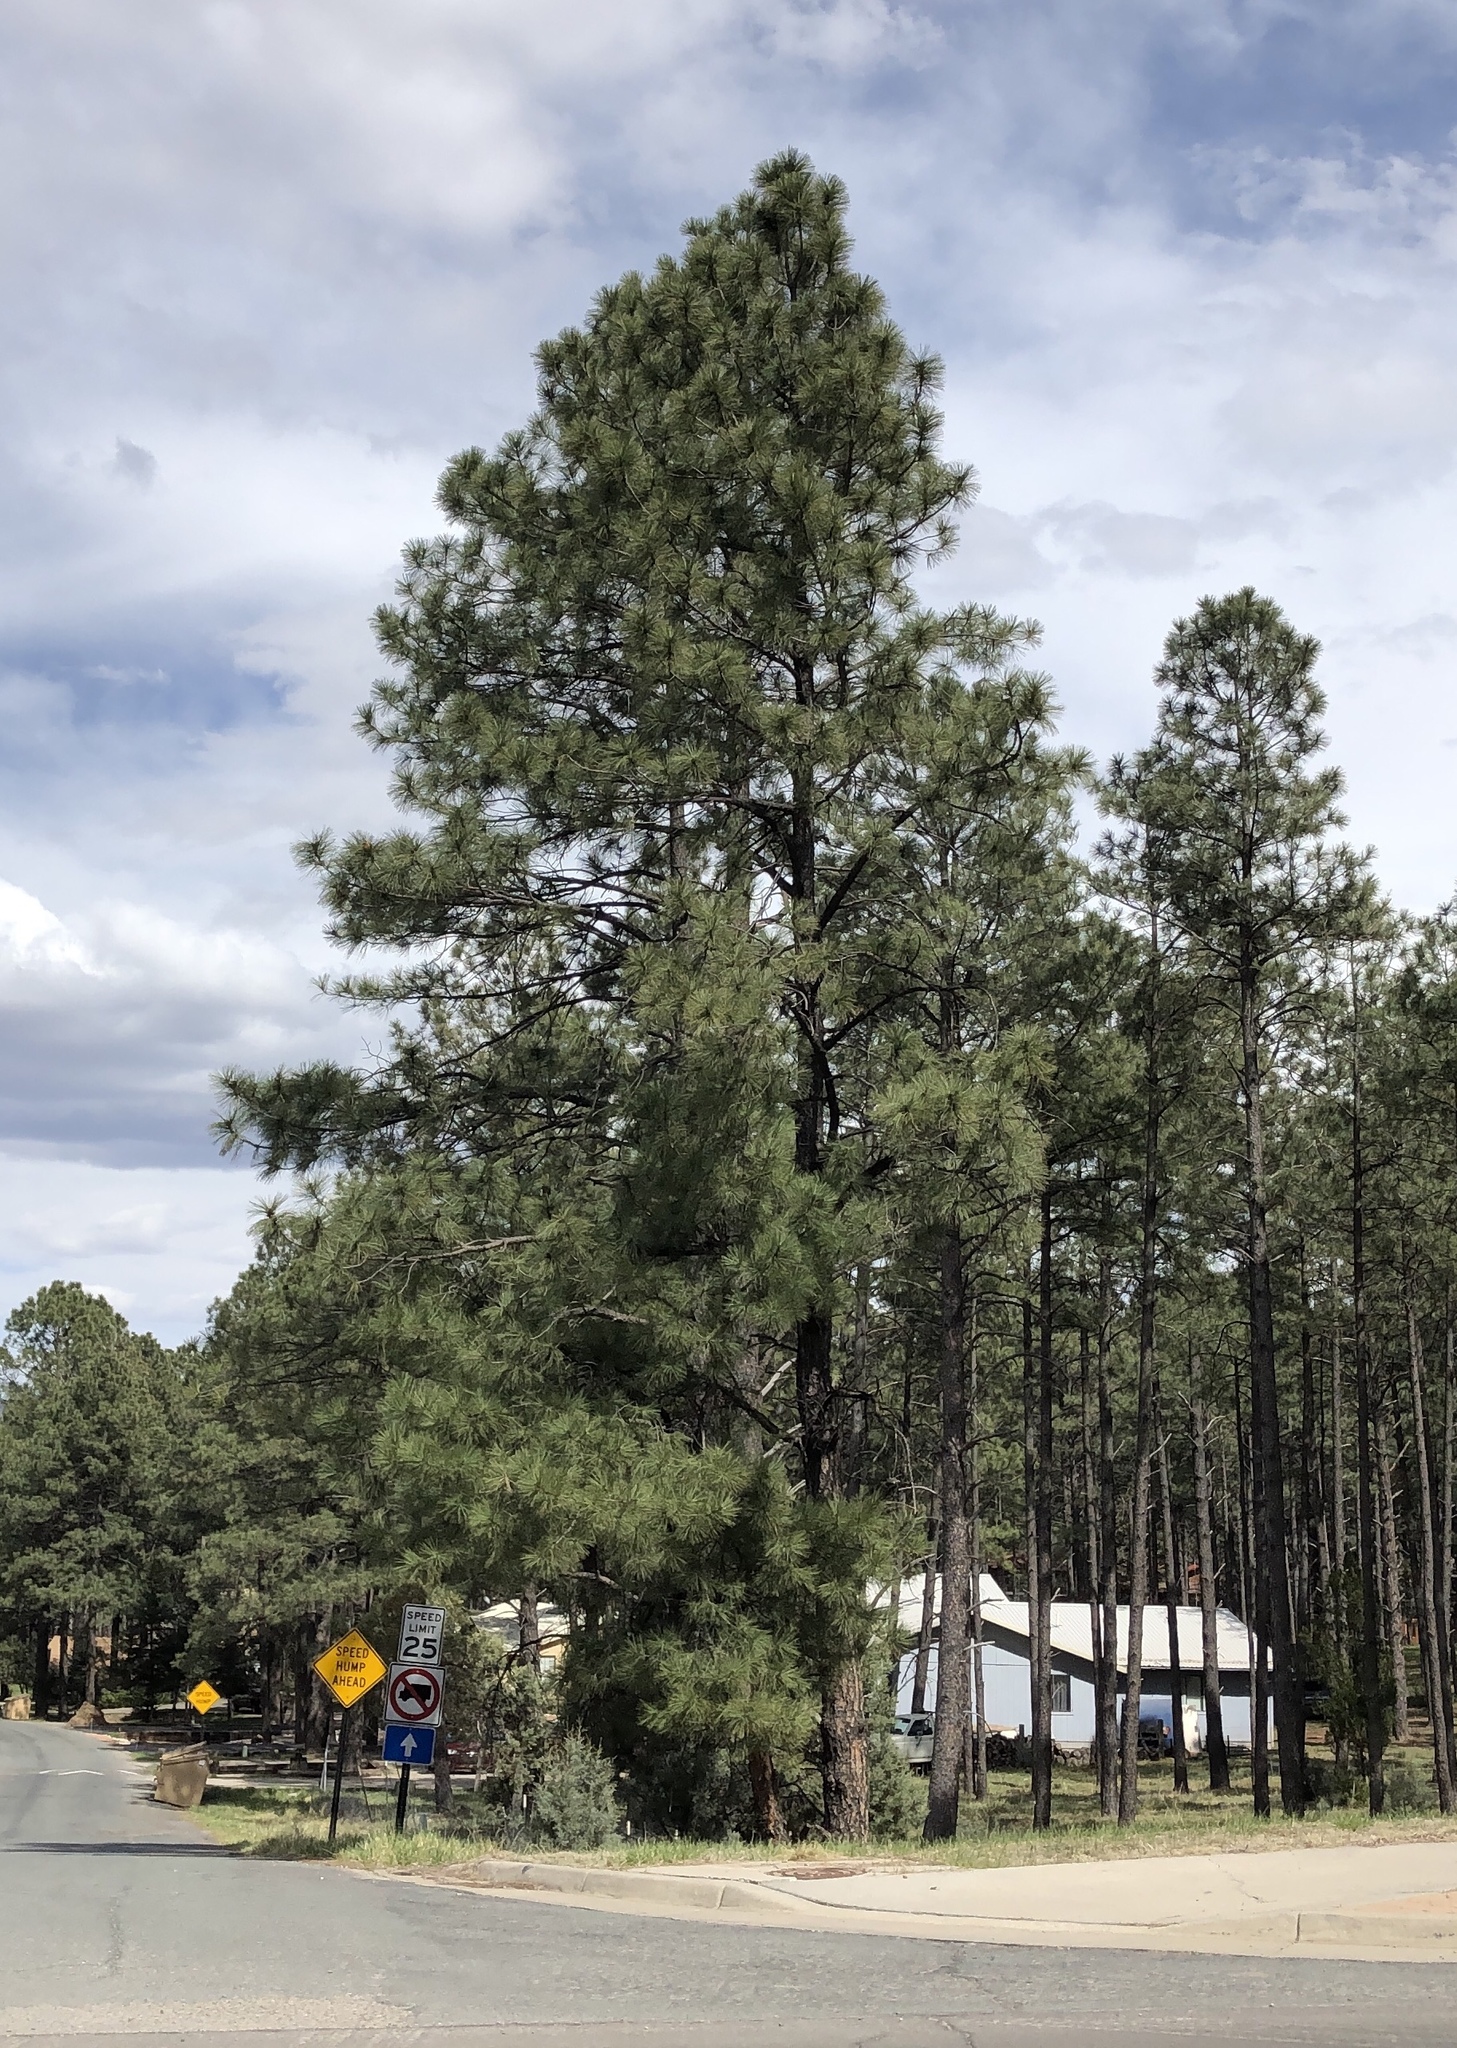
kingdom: Plantae
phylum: Tracheophyta
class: Pinopsida
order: Pinales
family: Pinaceae
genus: Pinus
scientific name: Pinus ponderosa
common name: Western yellow-pine
